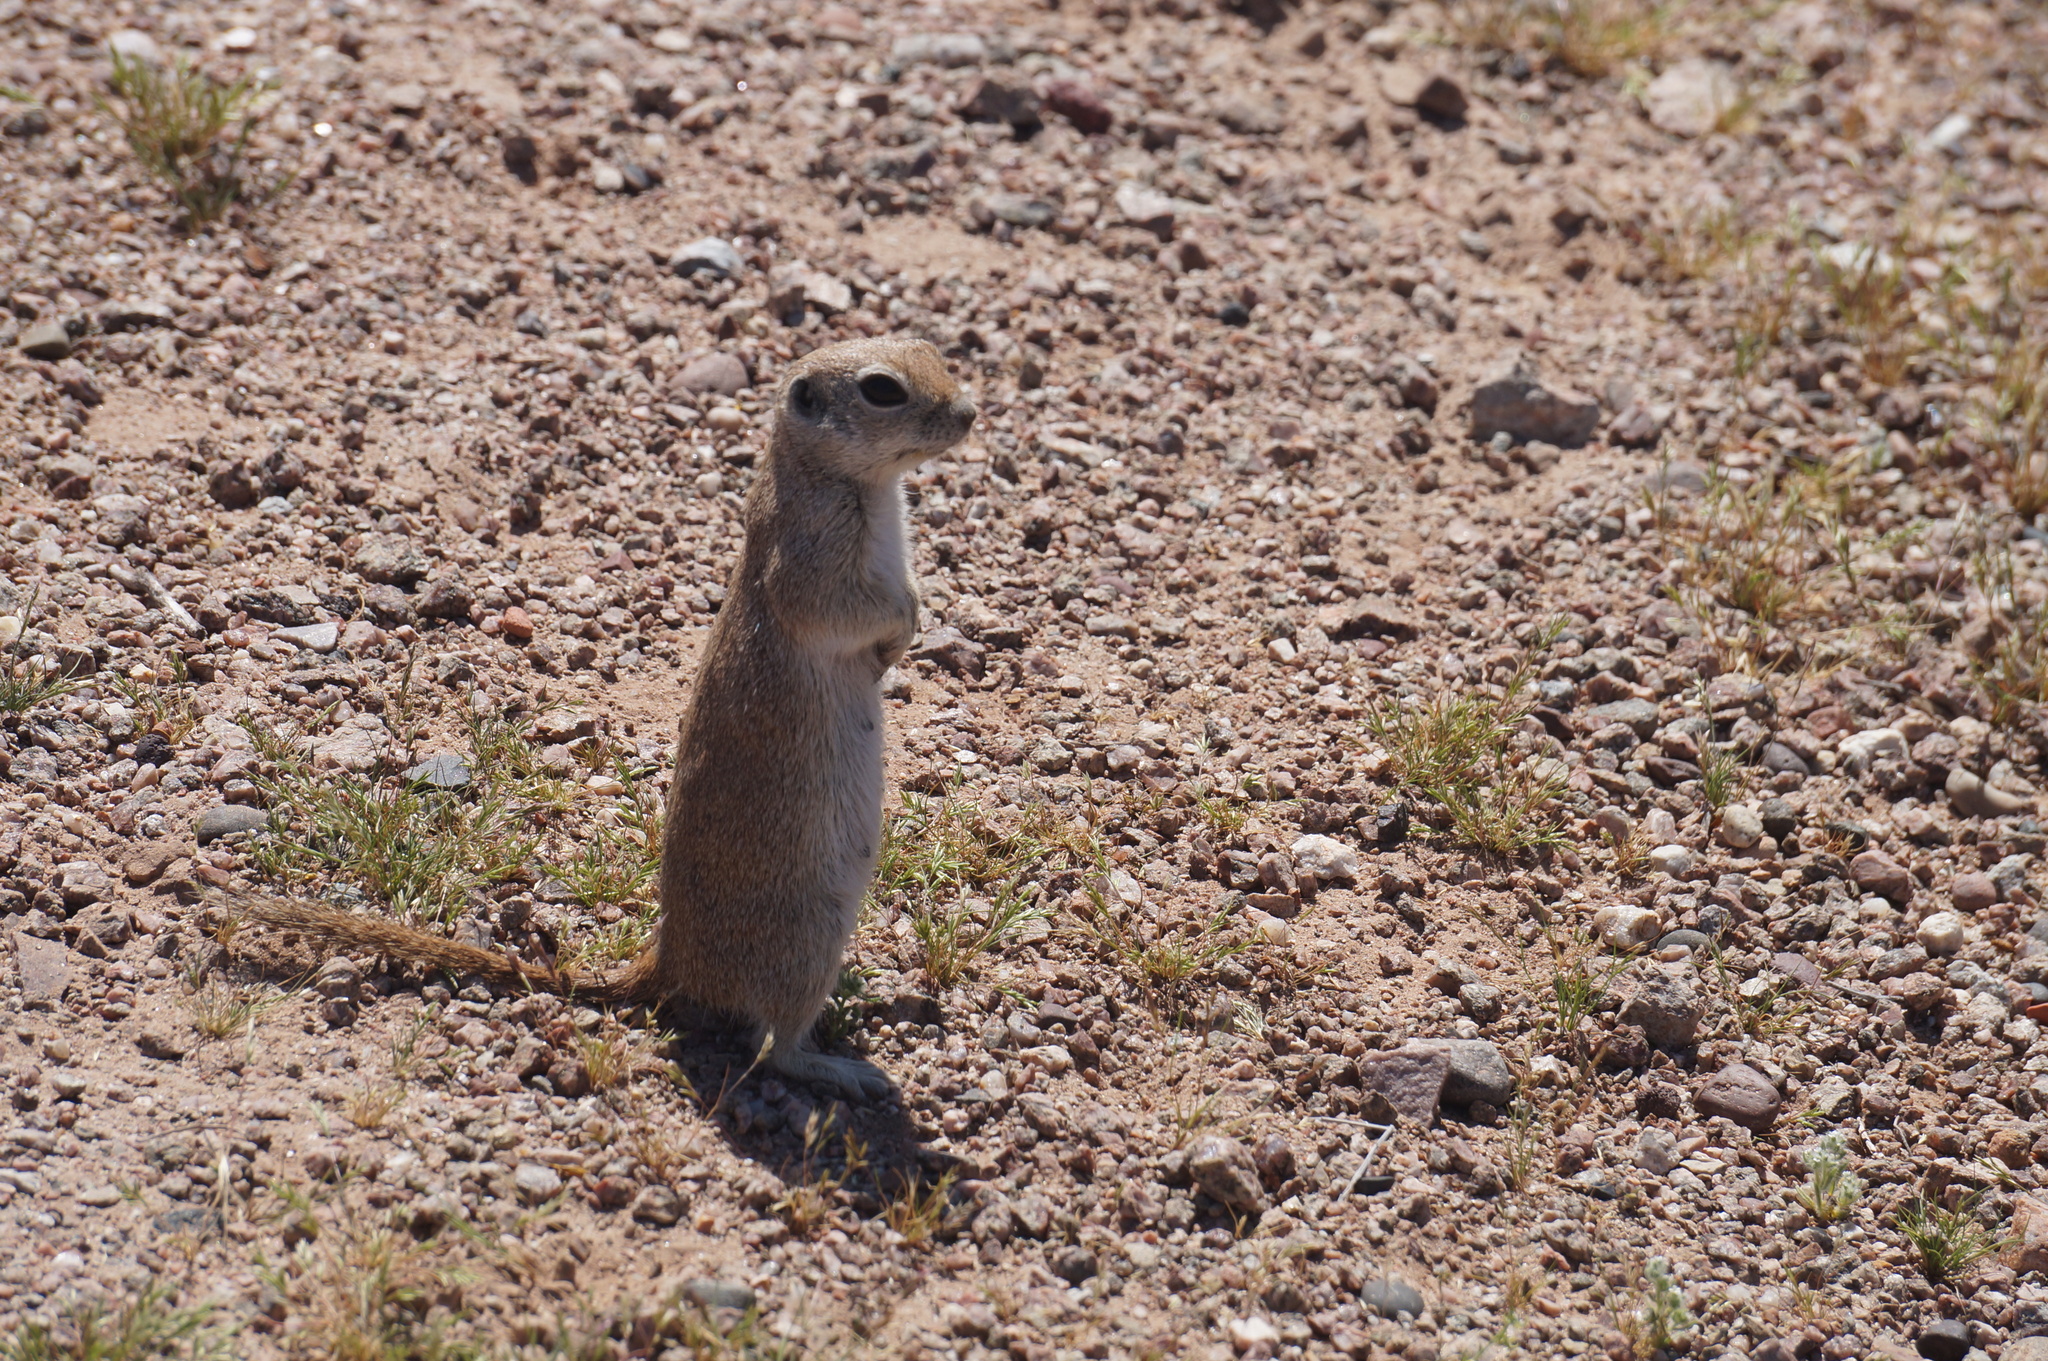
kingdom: Animalia
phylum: Chordata
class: Mammalia
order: Rodentia
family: Sciuridae
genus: Xerospermophilus
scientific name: Xerospermophilus tereticaudus
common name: Round-tailed ground squirrel
